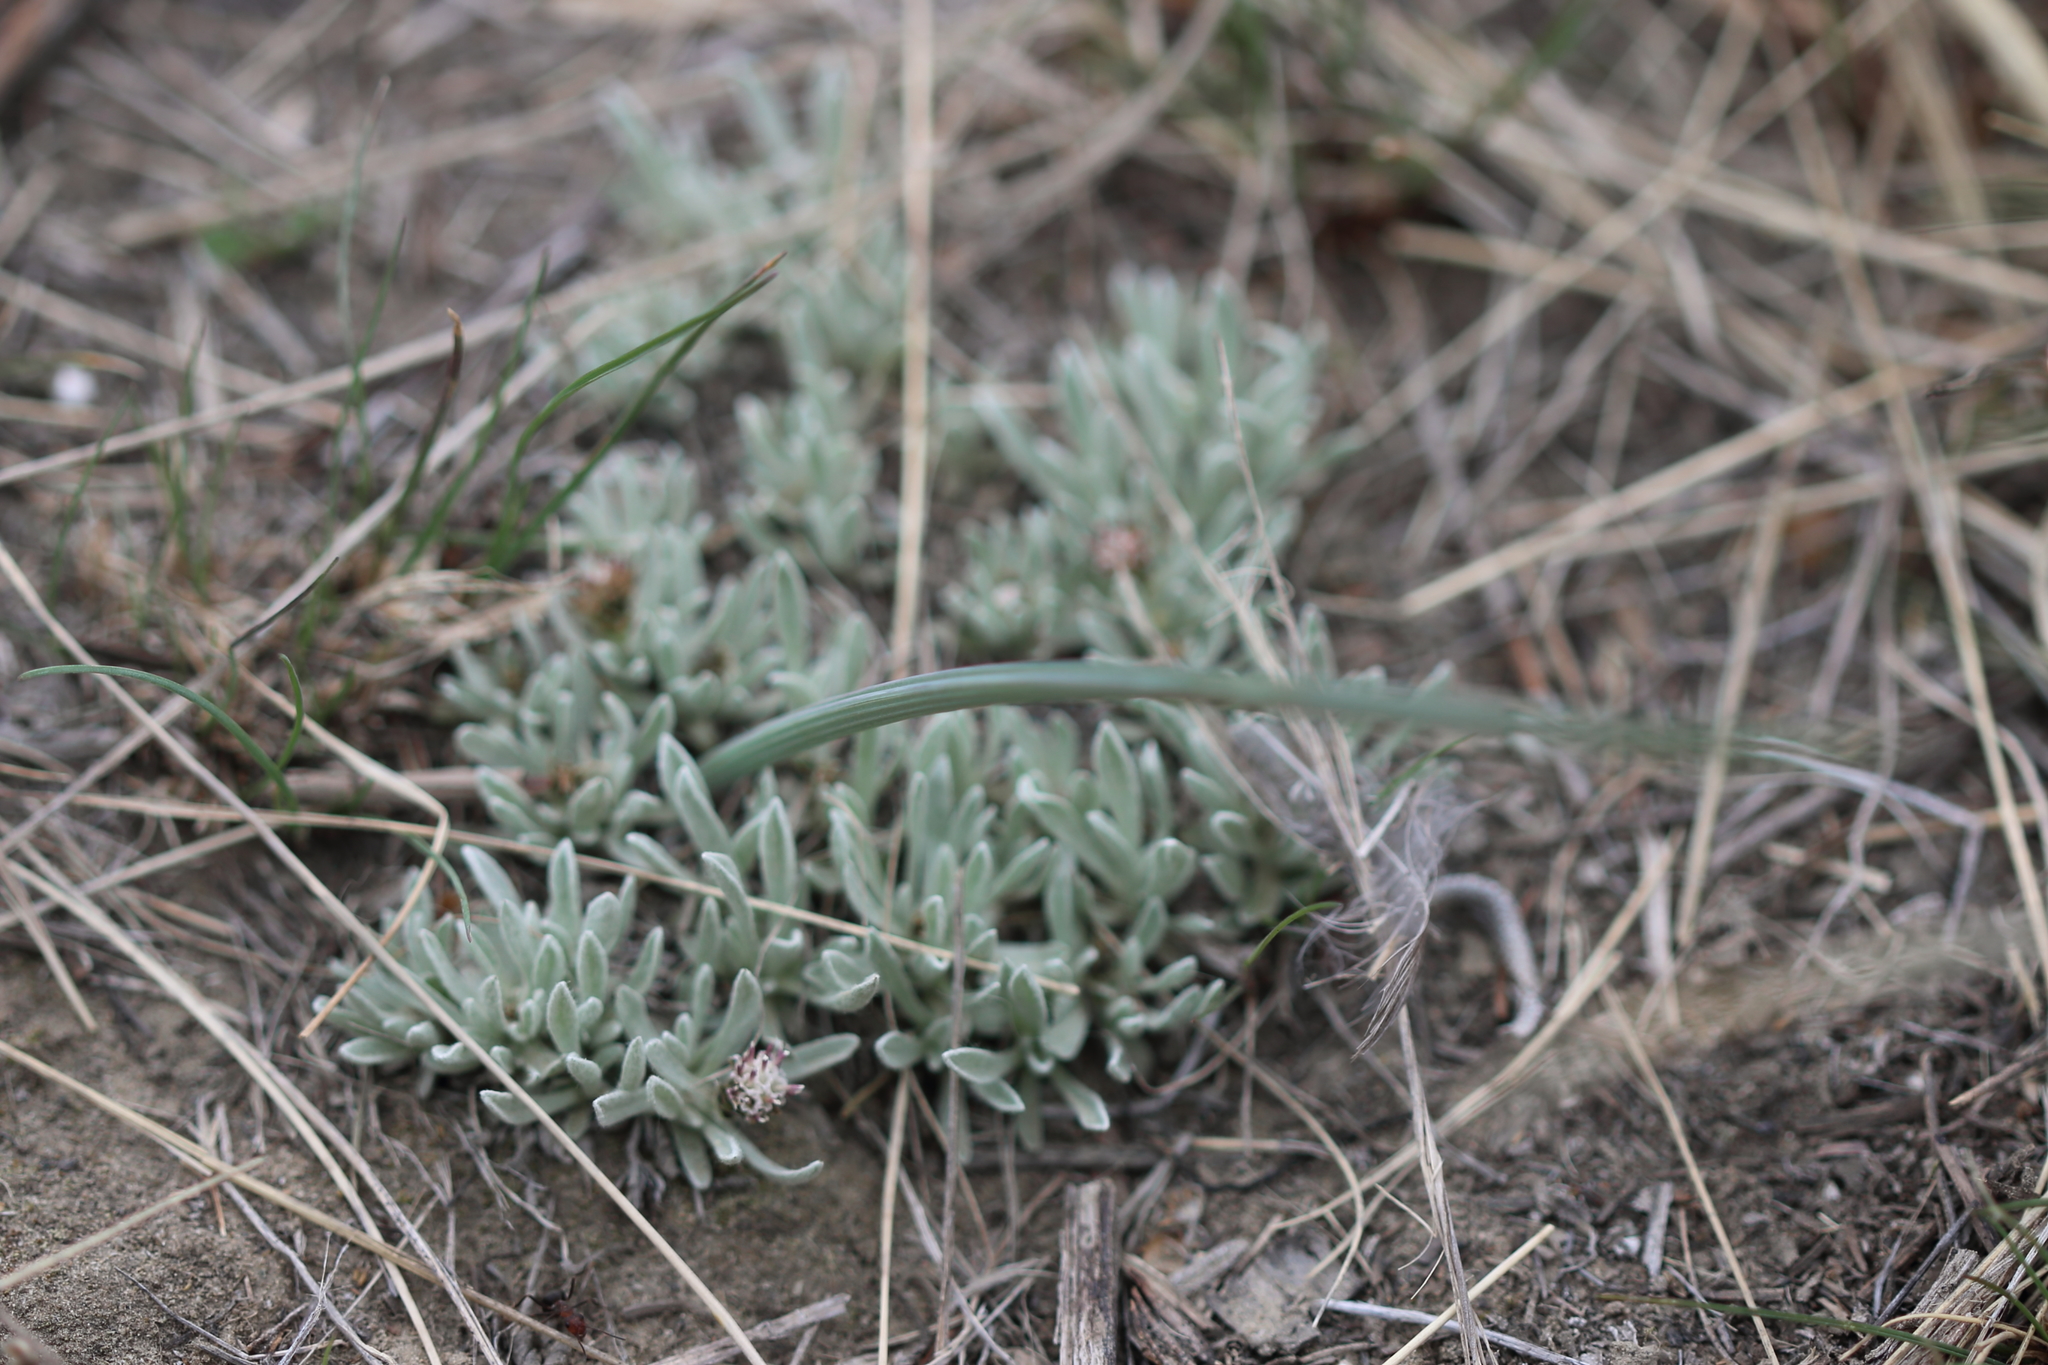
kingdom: Plantae
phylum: Tracheophyta
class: Magnoliopsida
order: Asterales
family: Asteraceae
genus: Antennaria
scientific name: Antennaria dimorpha
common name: Cushion pussytoes
